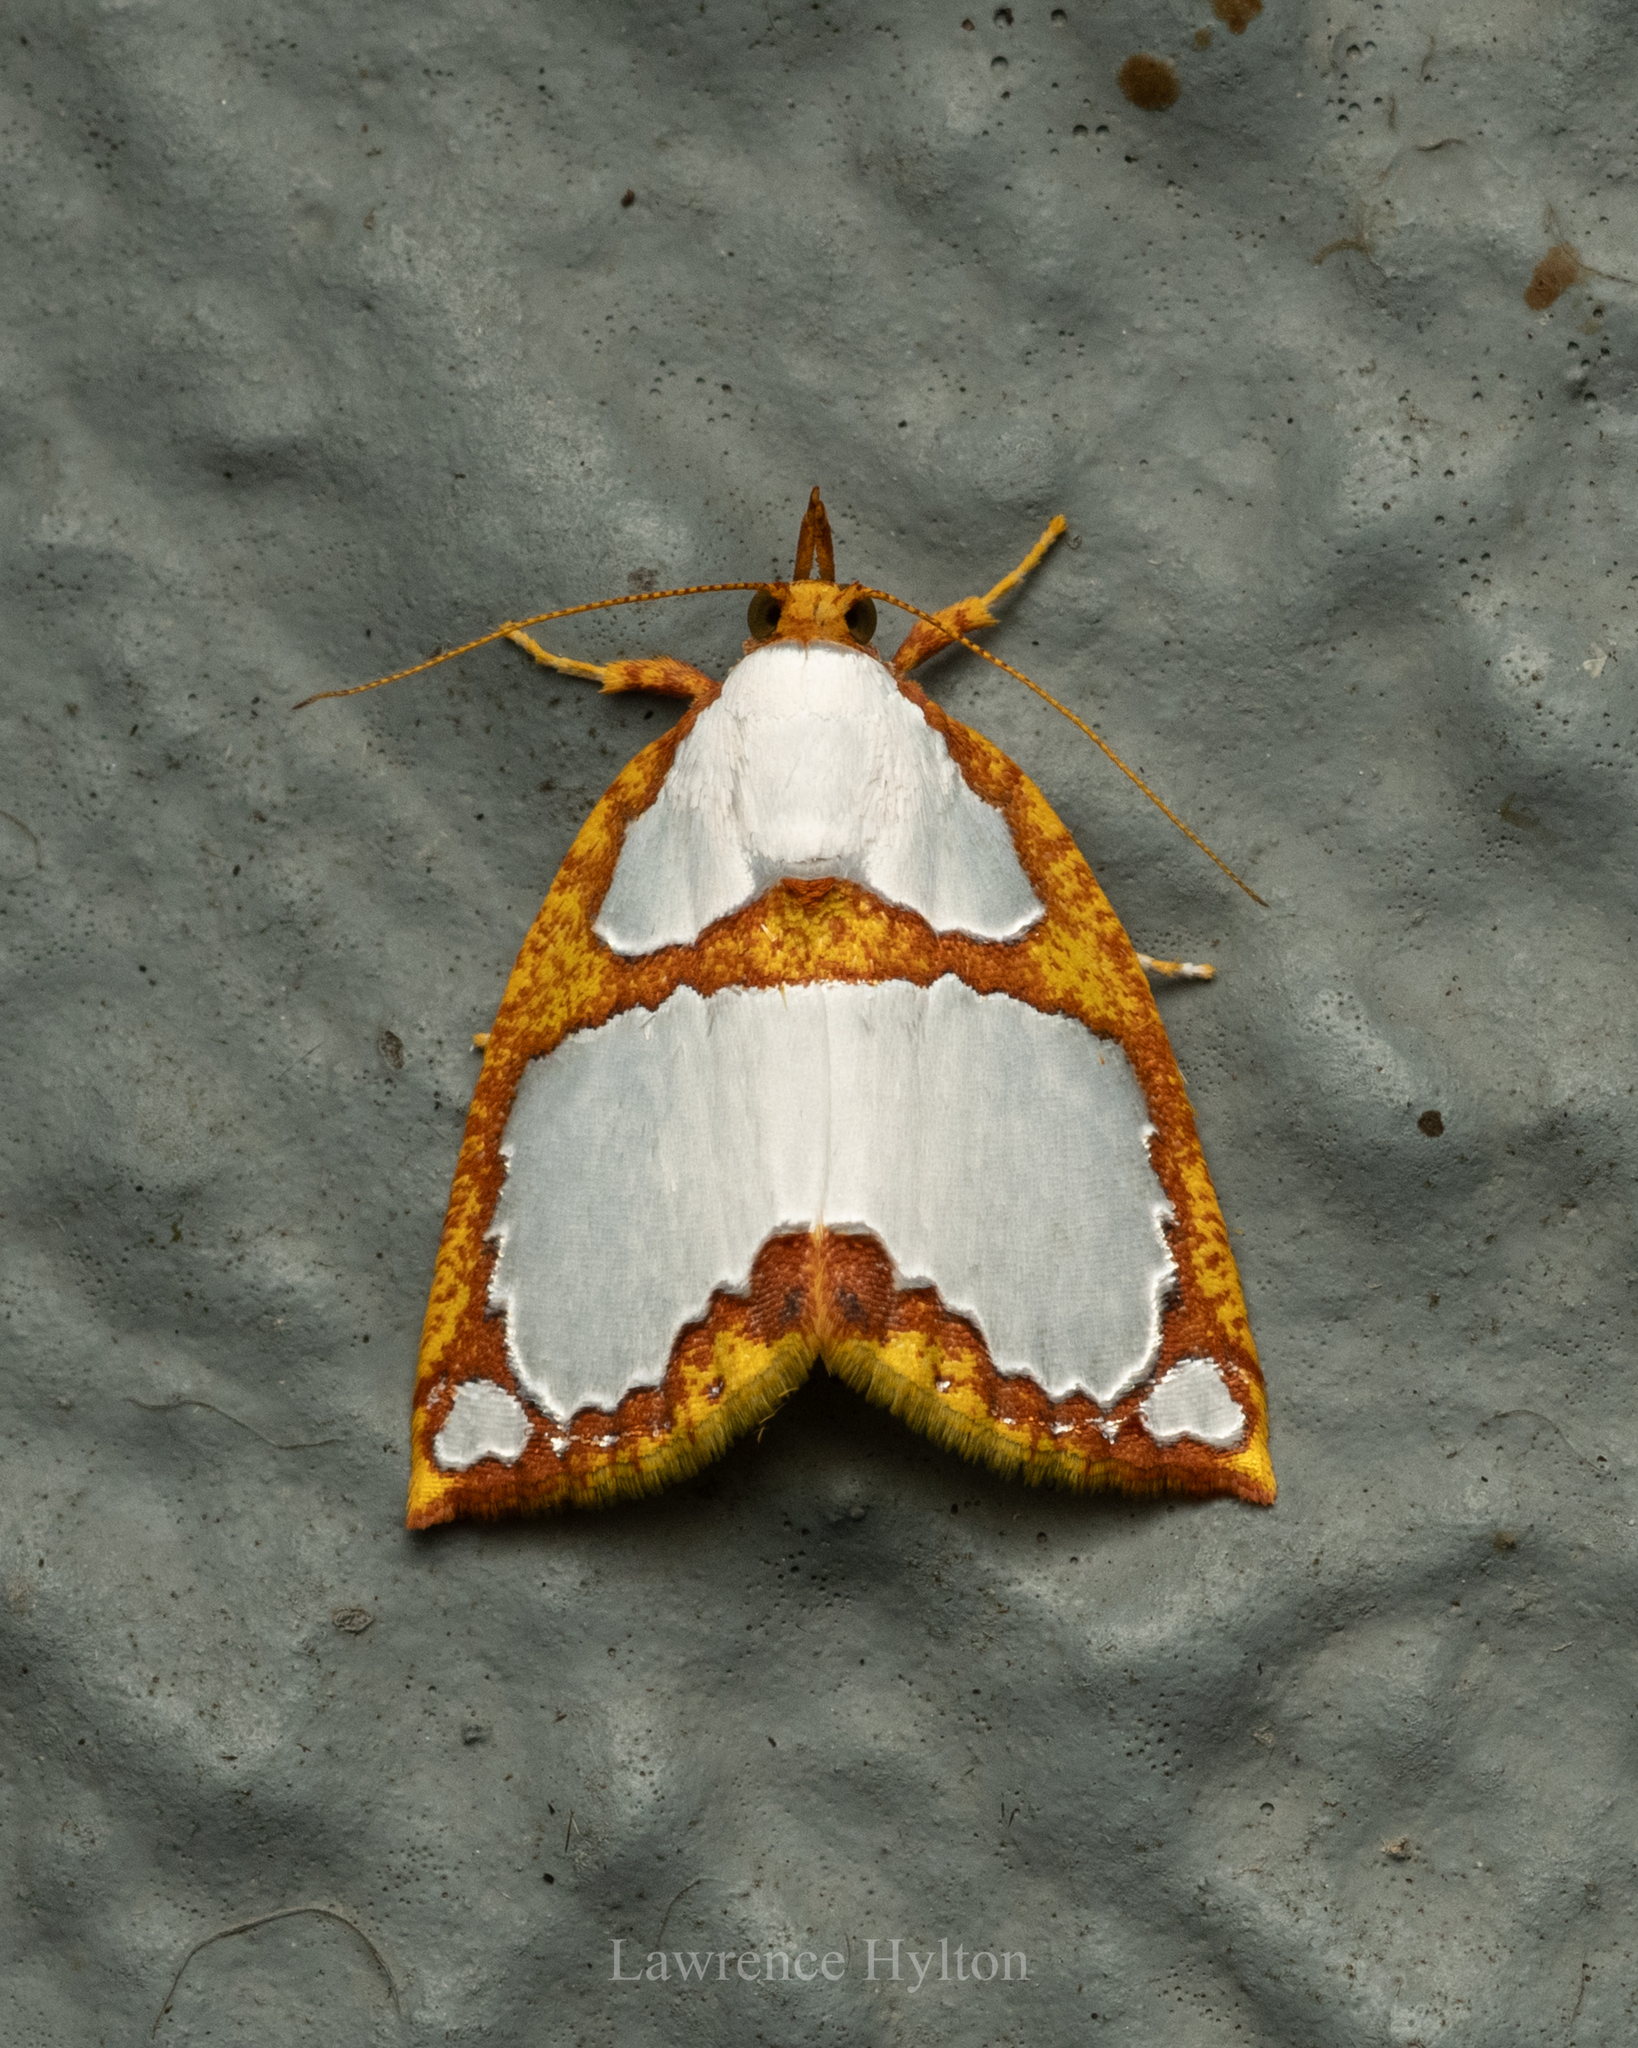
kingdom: Animalia
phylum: Arthropoda
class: Insecta
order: Lepidoptera
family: Nolidae
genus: Titulcia
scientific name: Titulcia confictella
